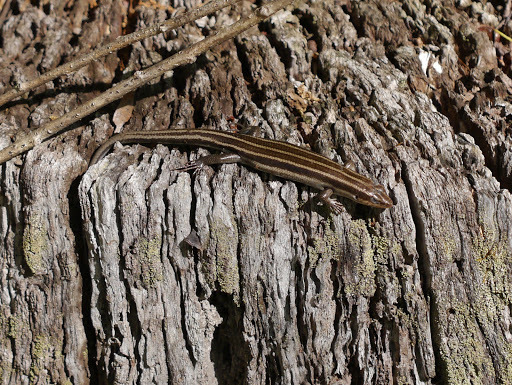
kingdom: Animalia
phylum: Chordata
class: Squamata
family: Scincidae
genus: Plestiodon
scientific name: Plestiodon fasciatus
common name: Five-lined skink
